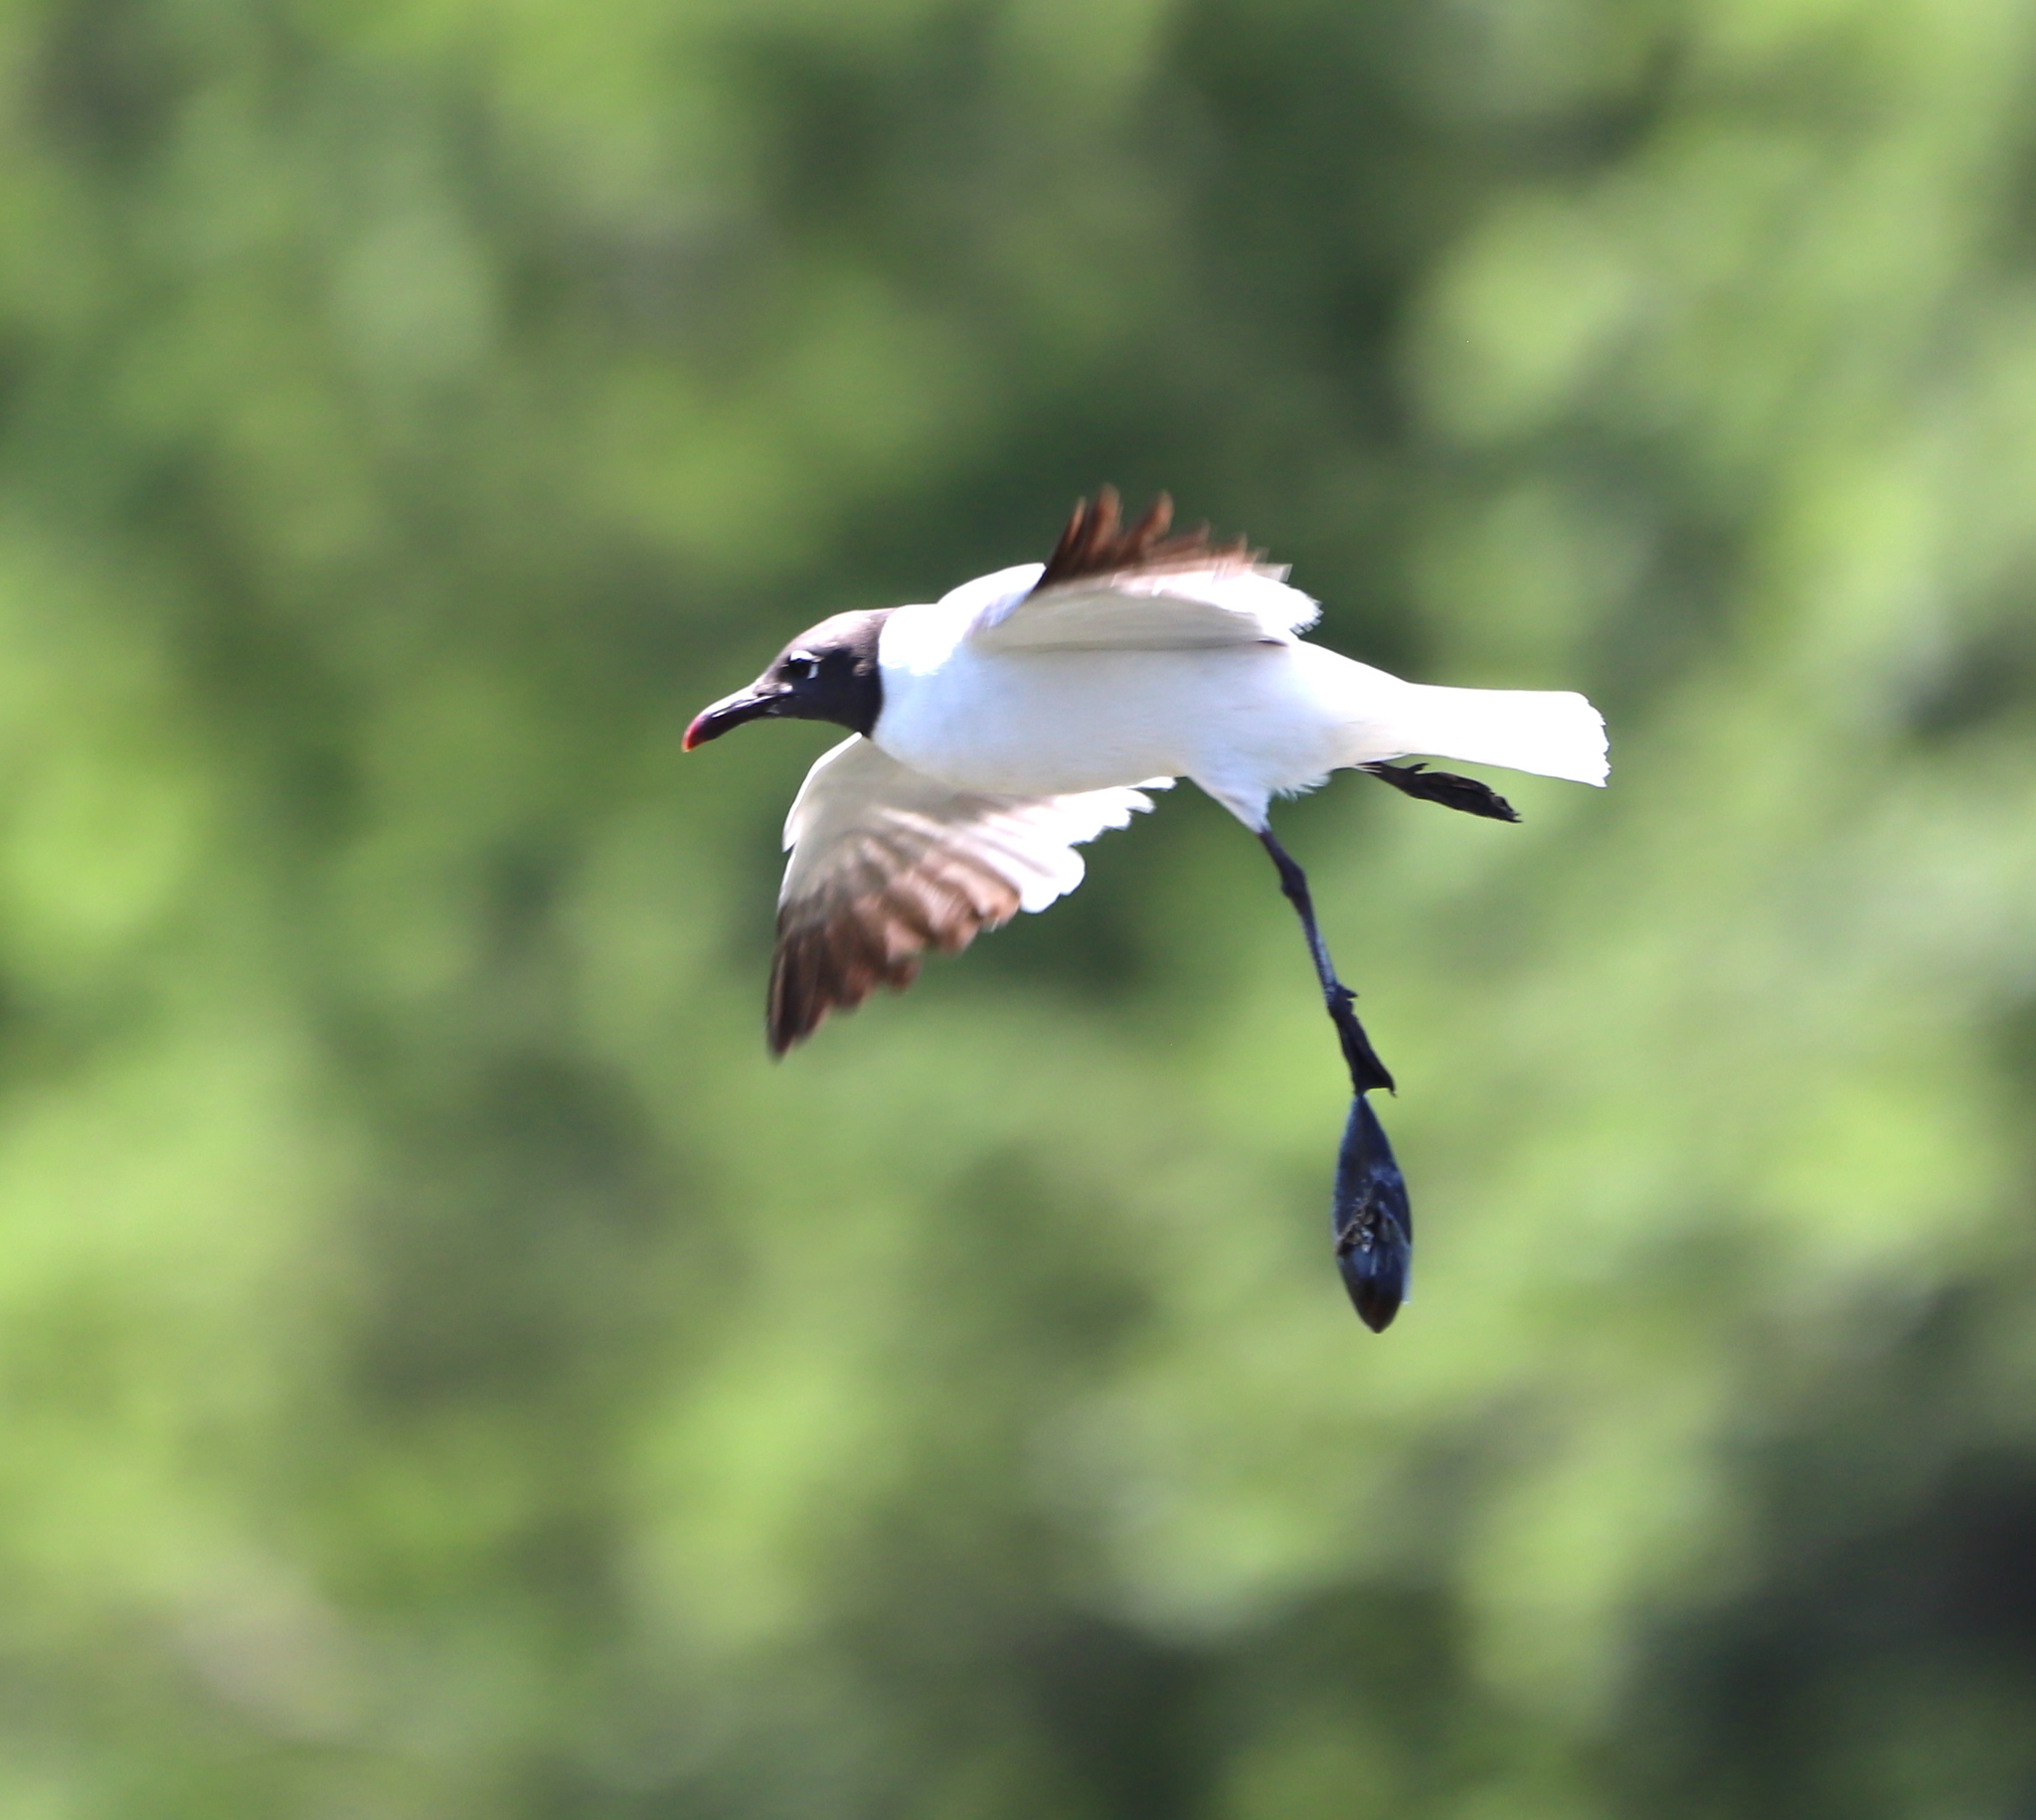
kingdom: Animalia
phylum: Chordata
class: Aves
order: Charadriiformes
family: Laridae
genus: Leucophaeus
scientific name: Leucophaeus atricilla
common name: Laughing gull
